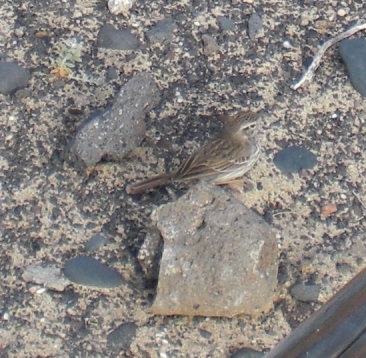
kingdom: Animalia
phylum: Chordata
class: Aves
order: Passeriformes
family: Motacillidae
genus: Anthus
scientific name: Anthus berthelotii
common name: Berthelot's pipit
